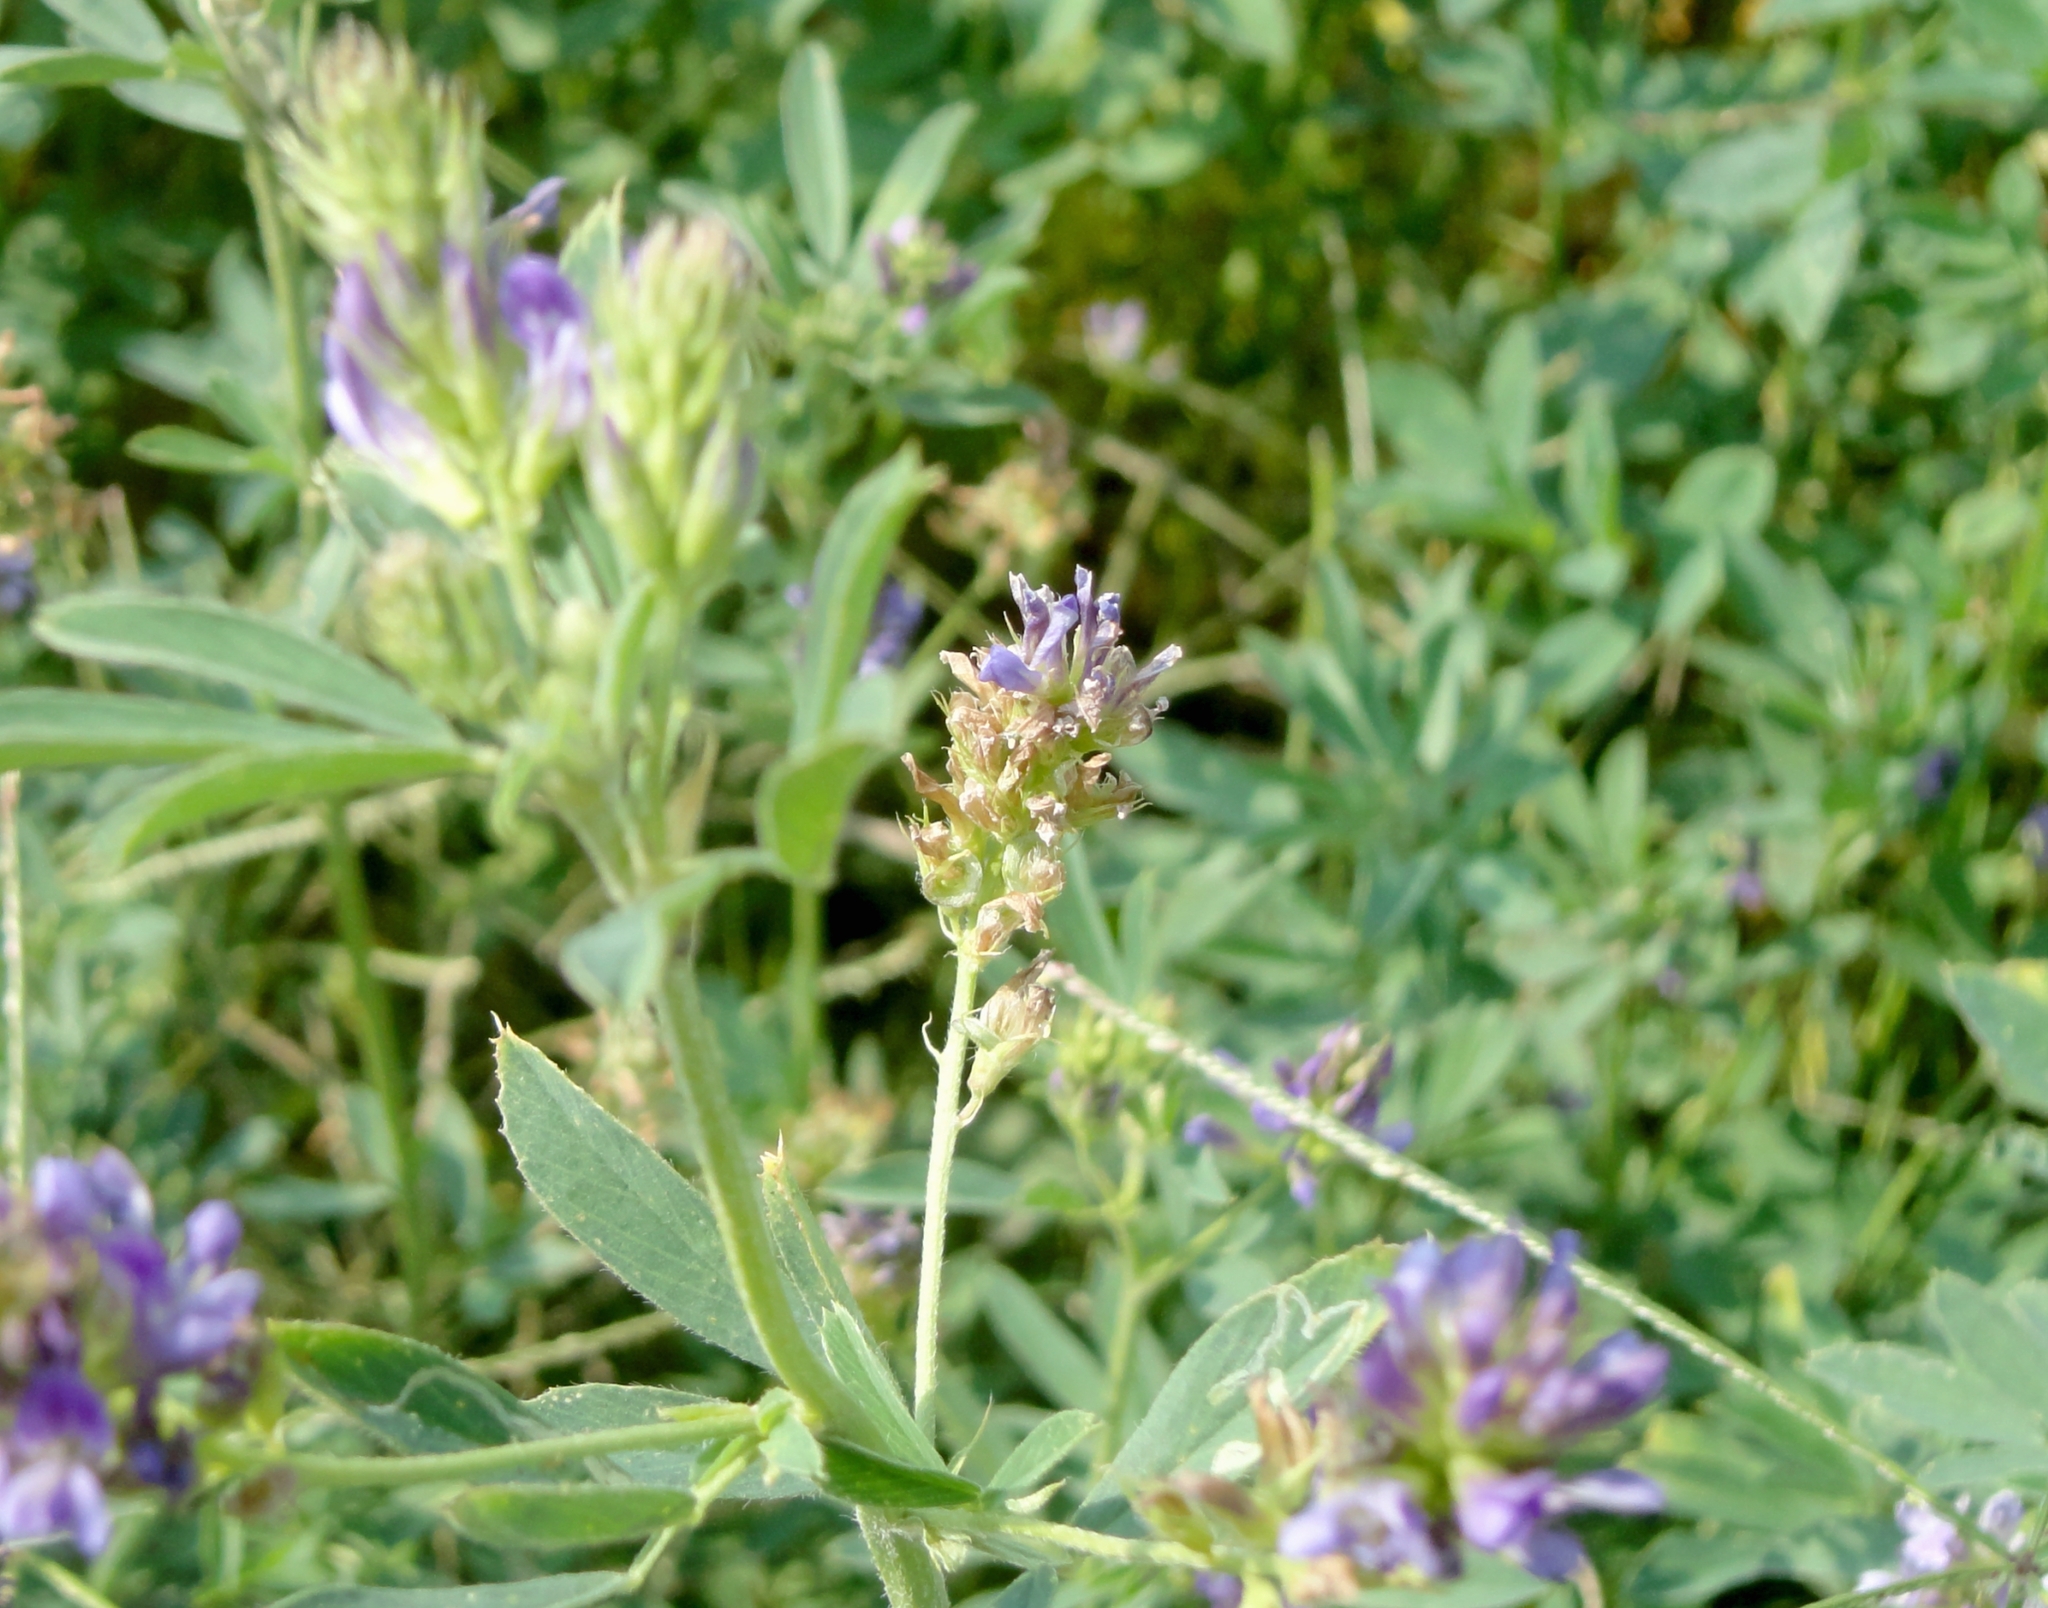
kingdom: Plantae
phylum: Tracheophyta
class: Magnoliopsida
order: Fabales
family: Fabaceae
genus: Medicago
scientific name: Medicago sativa
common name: Alfalfa
